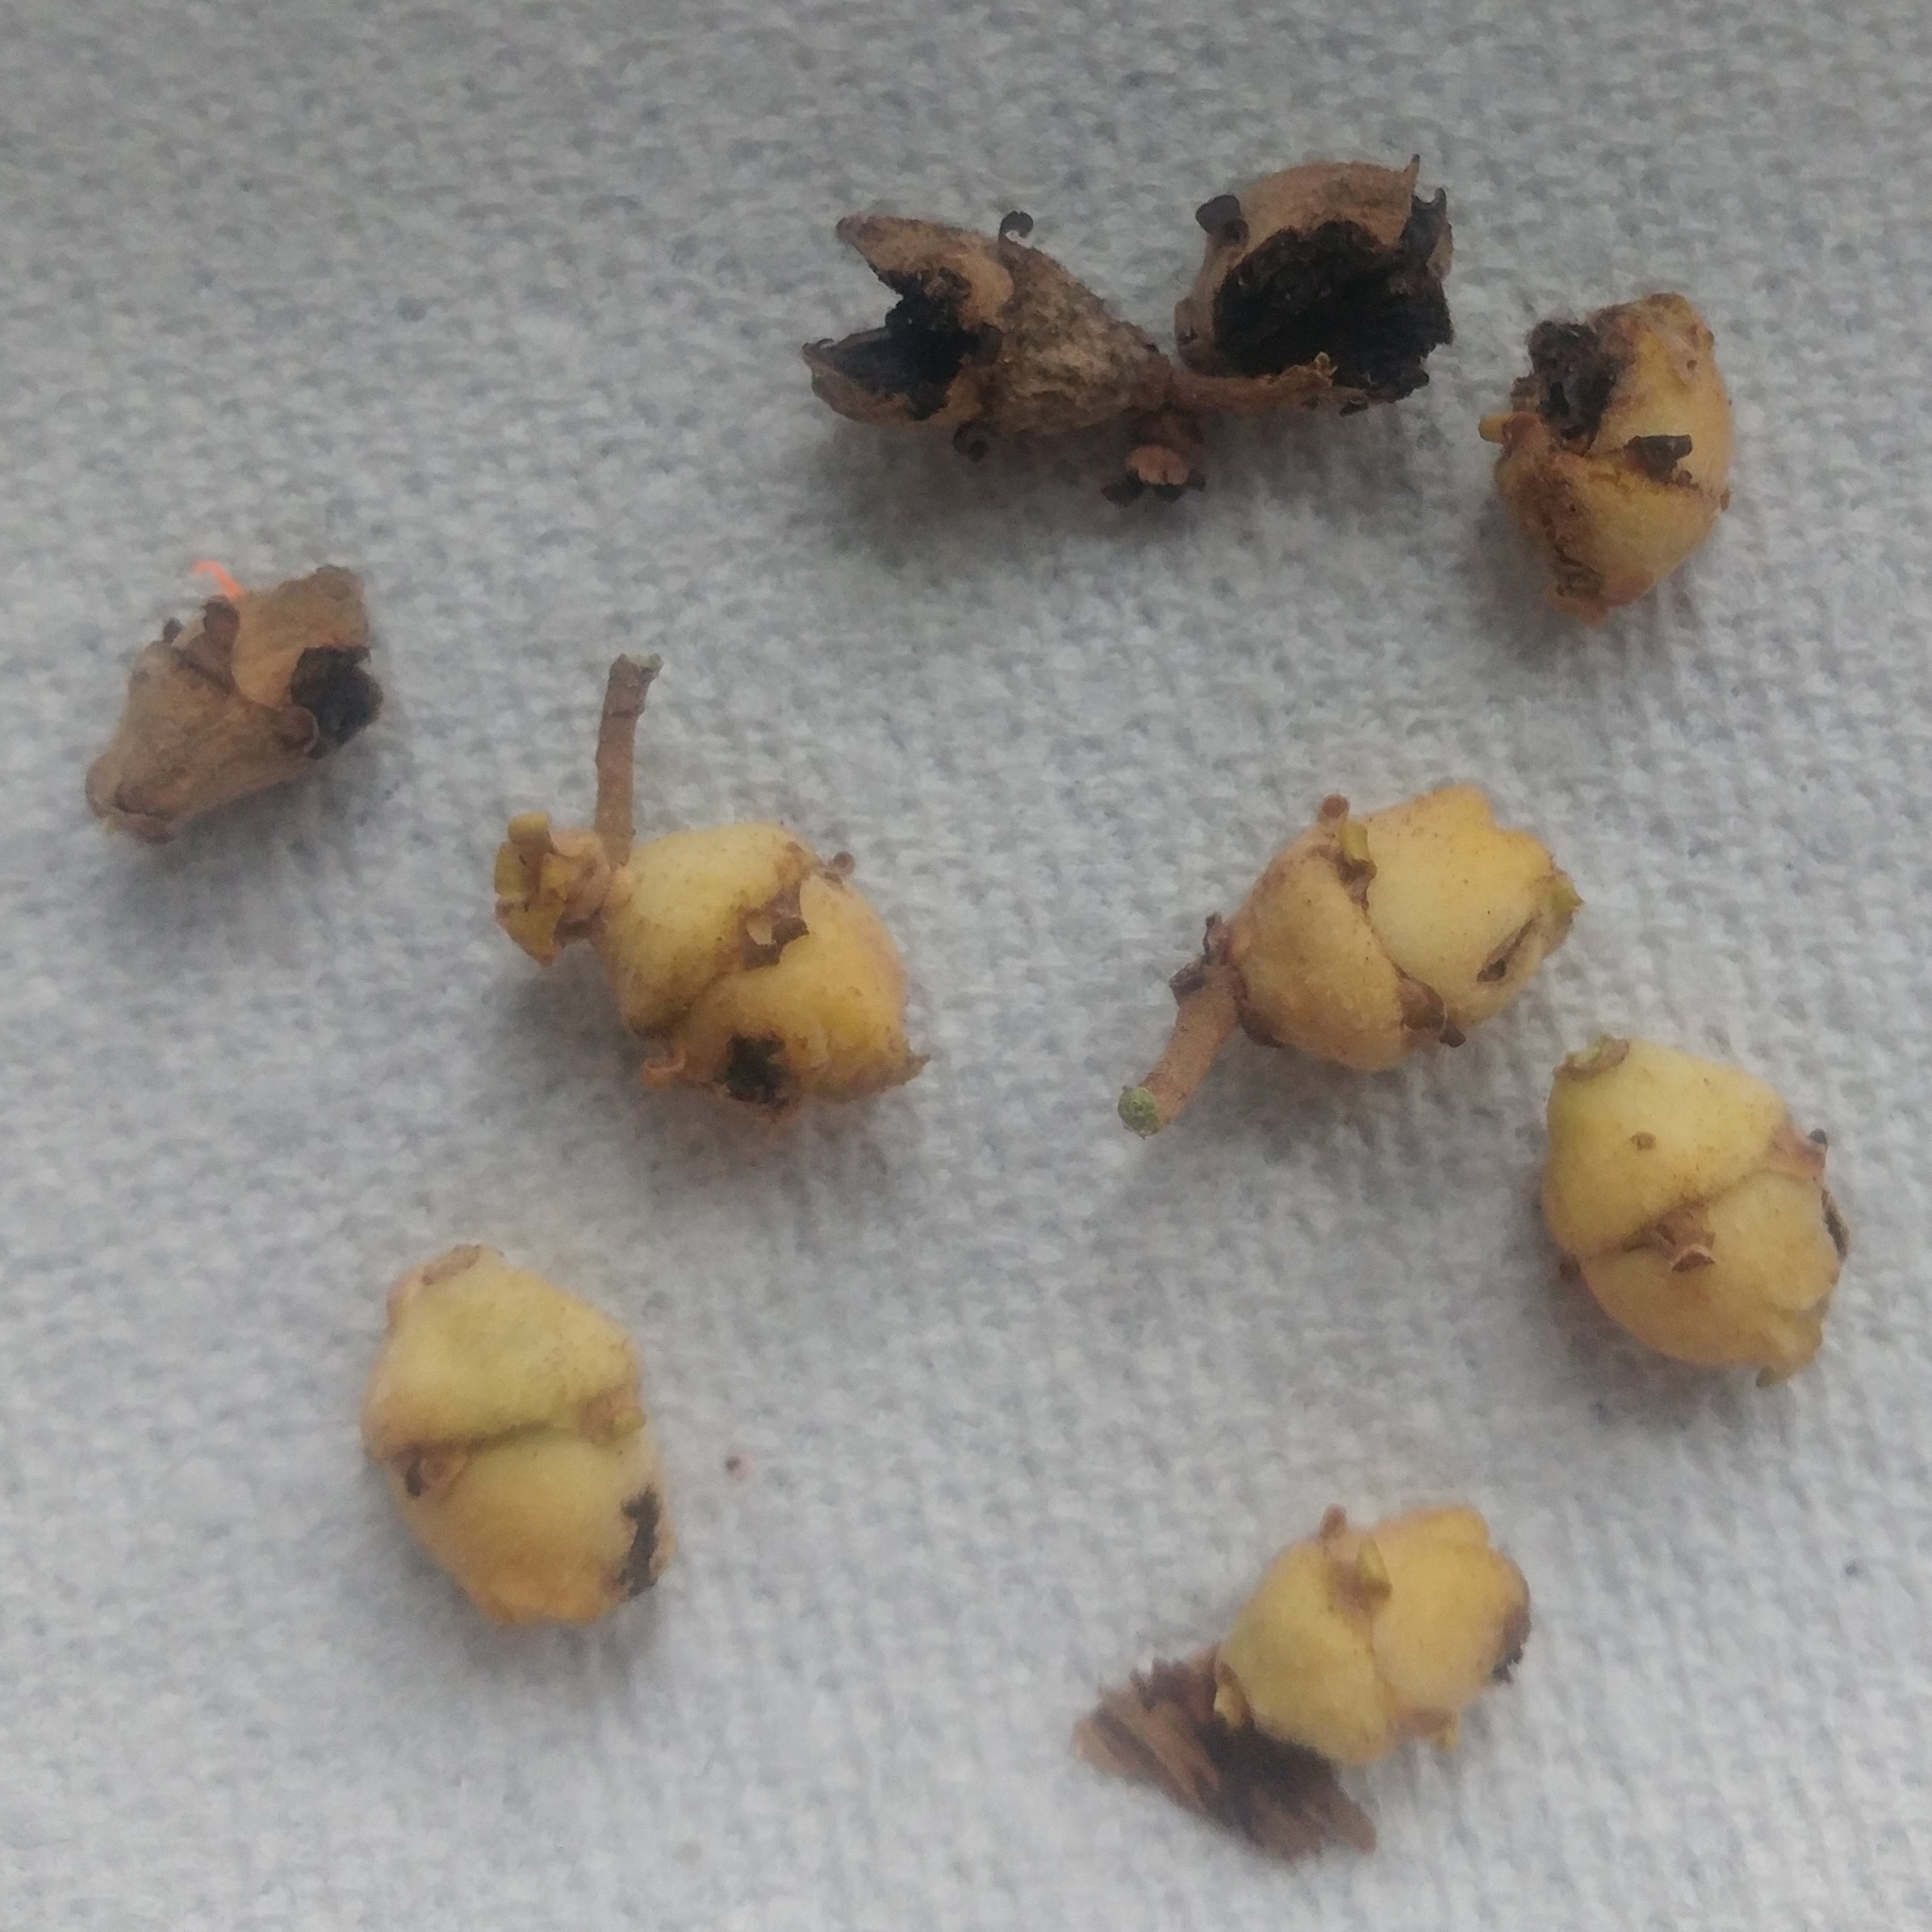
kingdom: Plantae
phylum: Tracheophyta
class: Magnoliopsida
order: Saxifragales
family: Hamamelidaceae
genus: Hamamelis
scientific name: Hamamelis virginiana
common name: Witch-hazel
